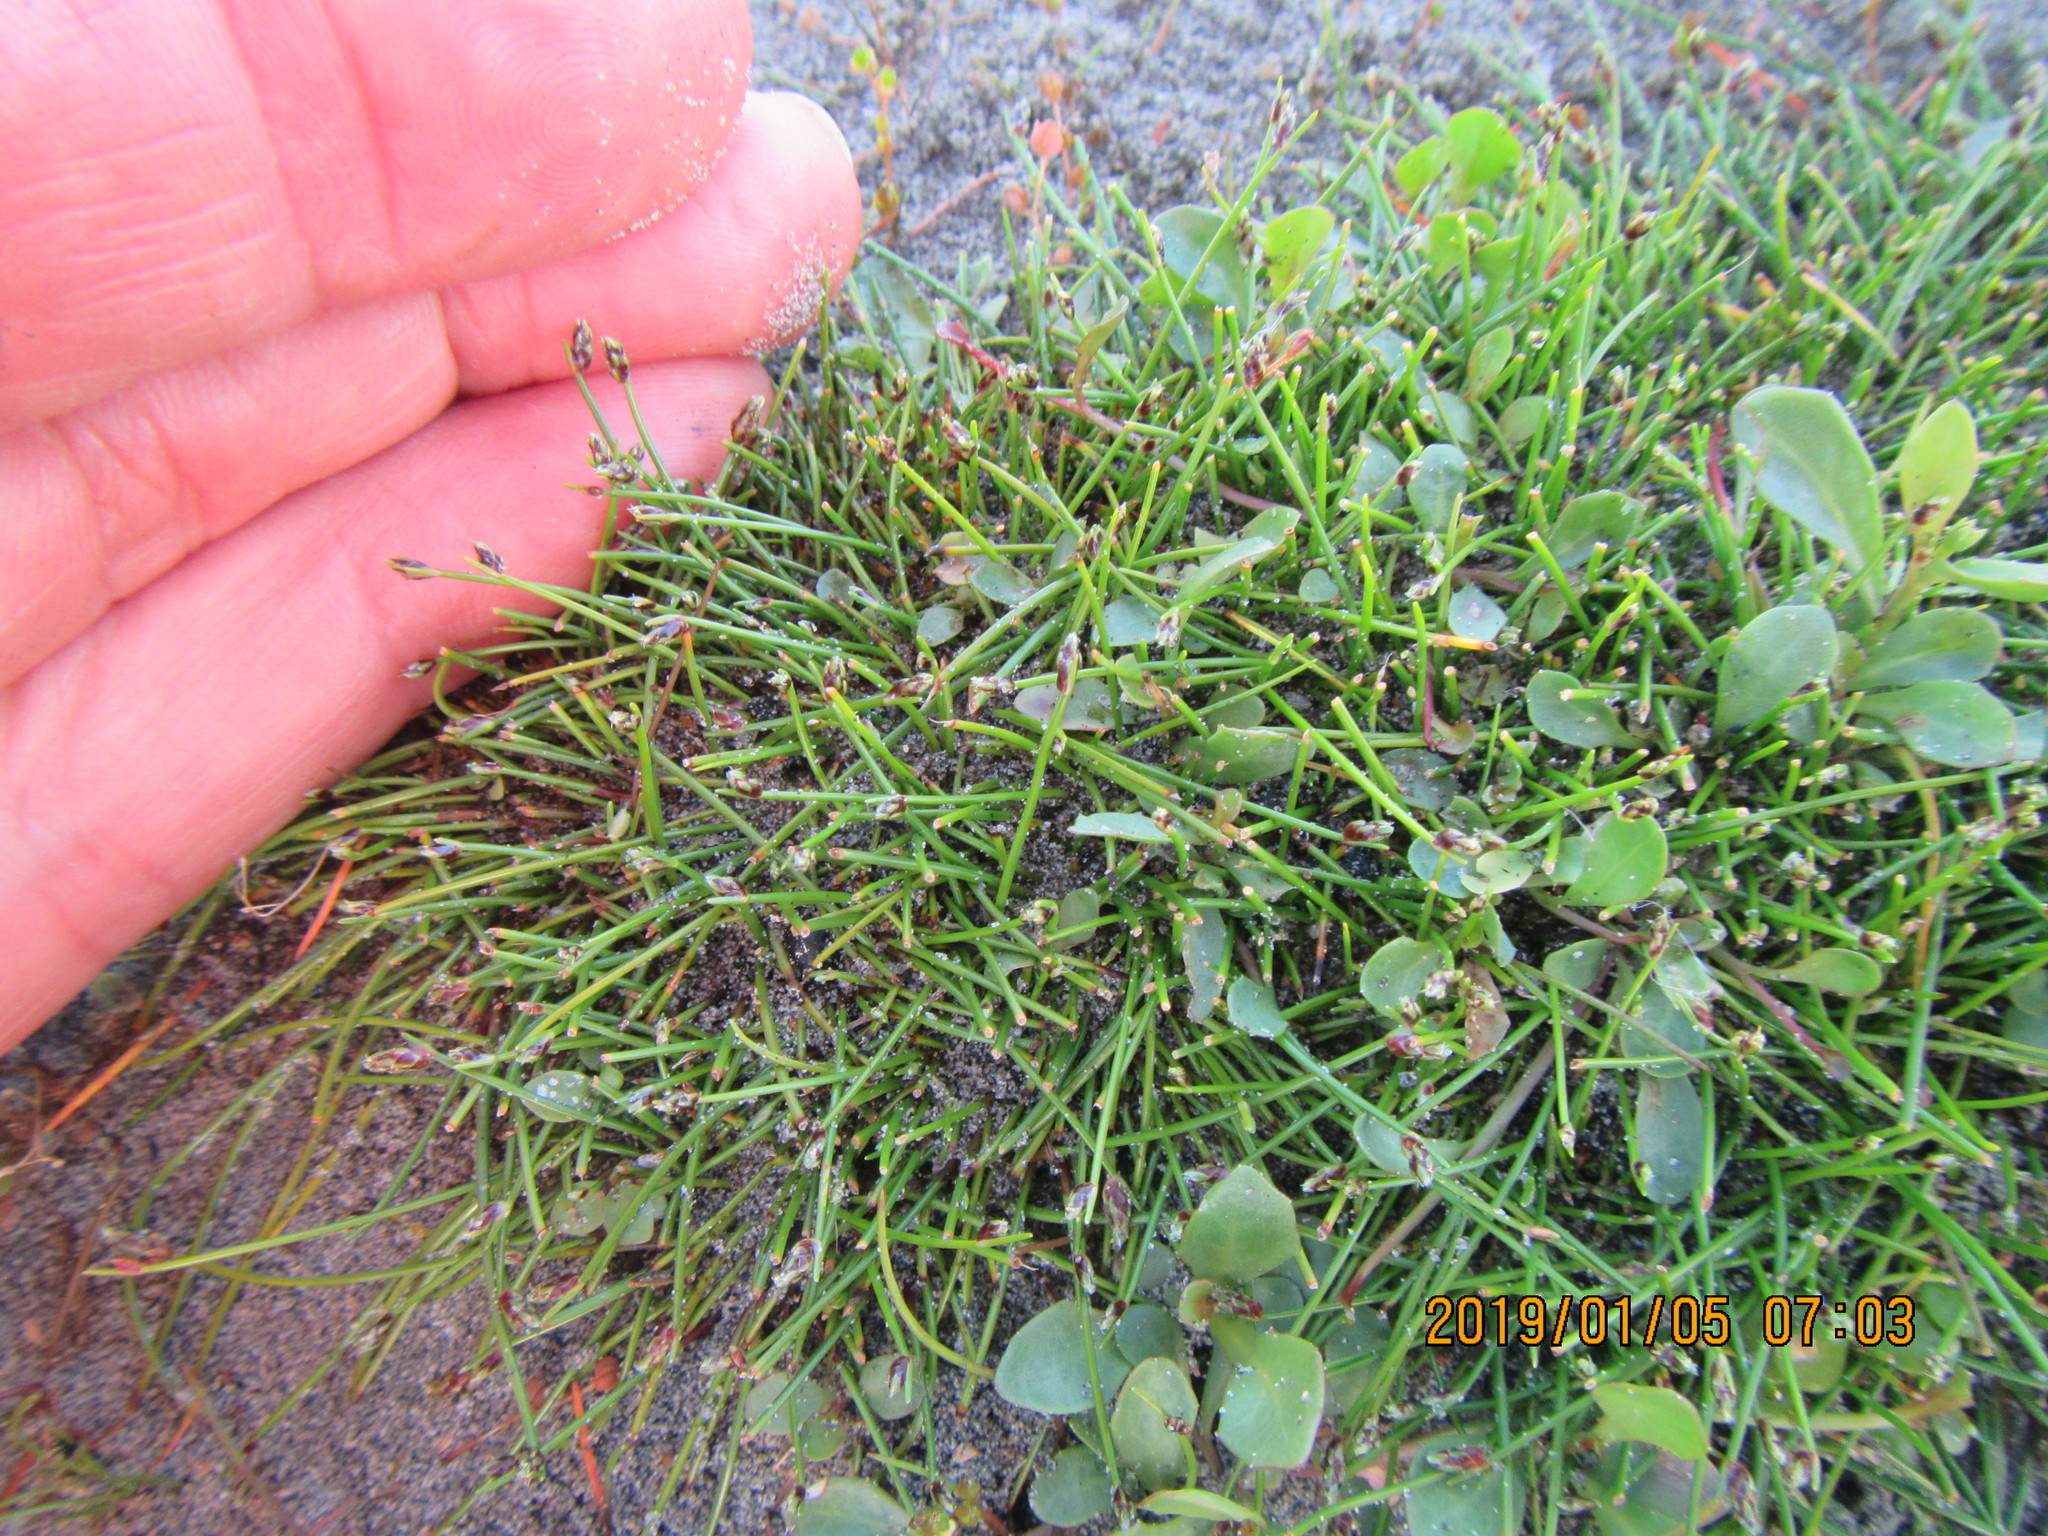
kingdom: Plantae
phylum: Tracheophyta
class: Liliopsida
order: Poales
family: Cyperaceae
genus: Isolepis
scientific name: Isolepis cernua
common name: Slender club-rush
